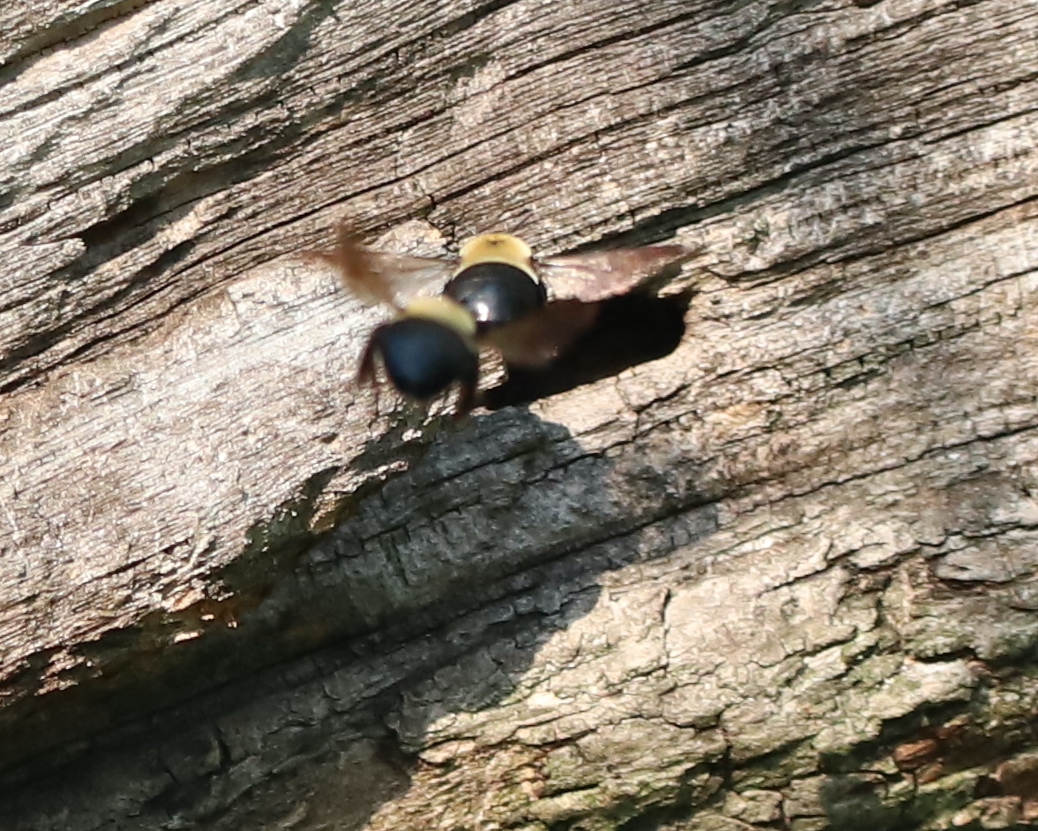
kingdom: Animalia
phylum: Arthropoda
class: Insecta
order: Hymenoptera
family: Apidae
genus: Xylocopa
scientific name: Xylocopa virginica
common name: Carpenter bee
